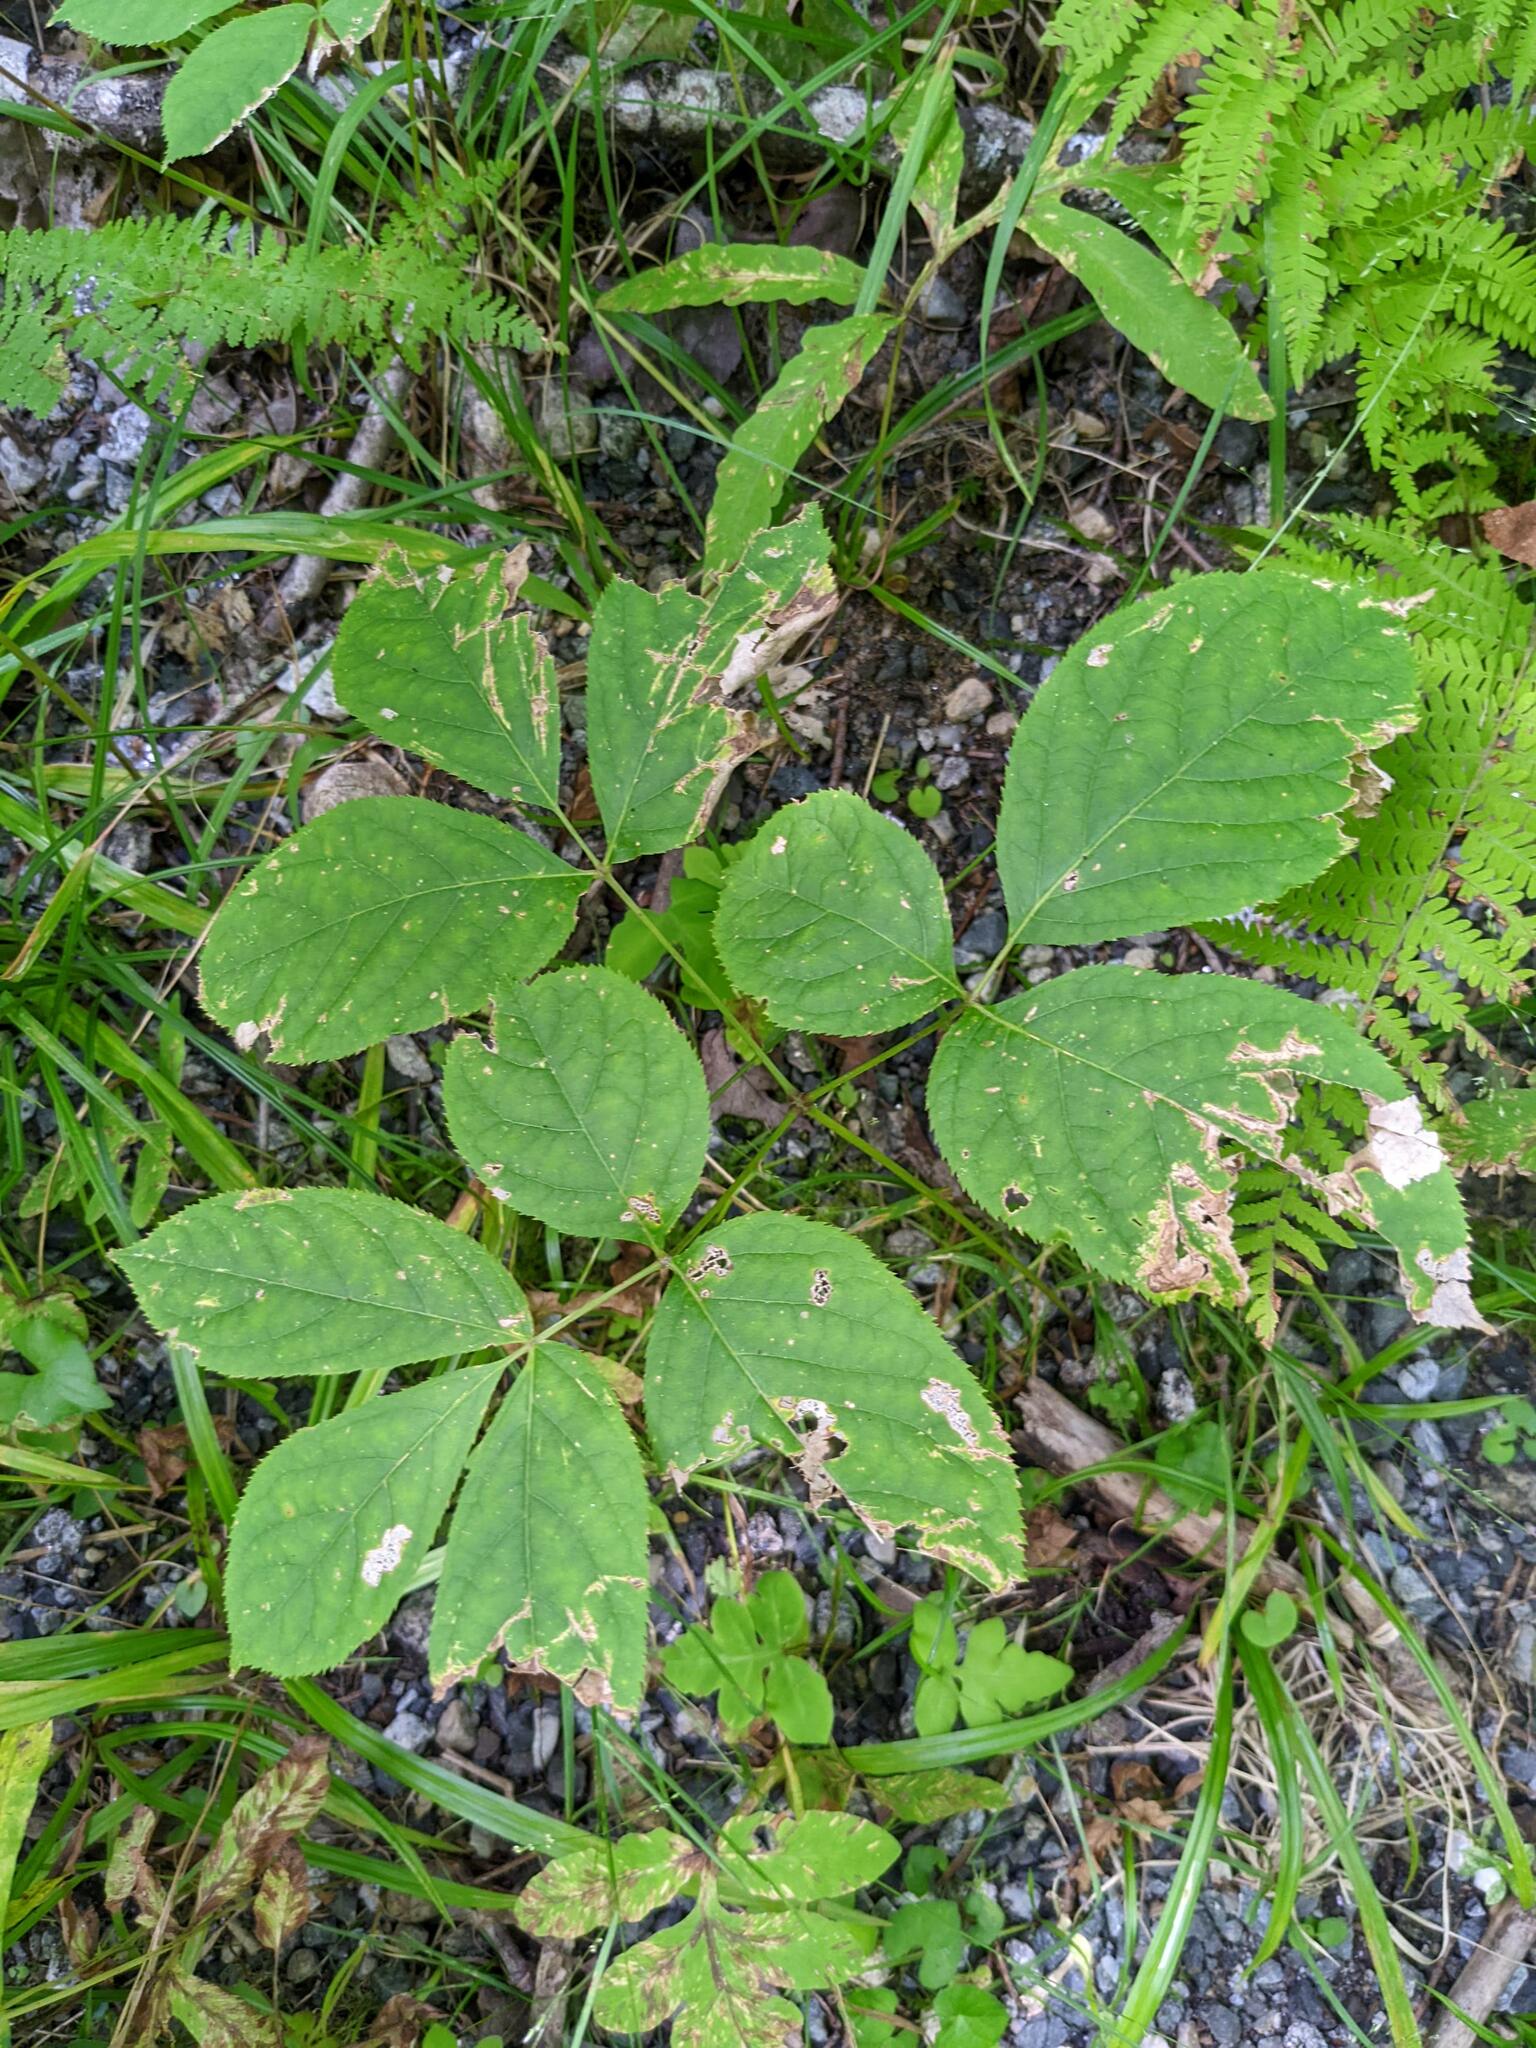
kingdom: Plantae
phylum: Tracheophyta
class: Magnoliopsida
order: Apiales
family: Araliaceae
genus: Aralia
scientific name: Aralia nudicaulis
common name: Wild sarsaparilla
